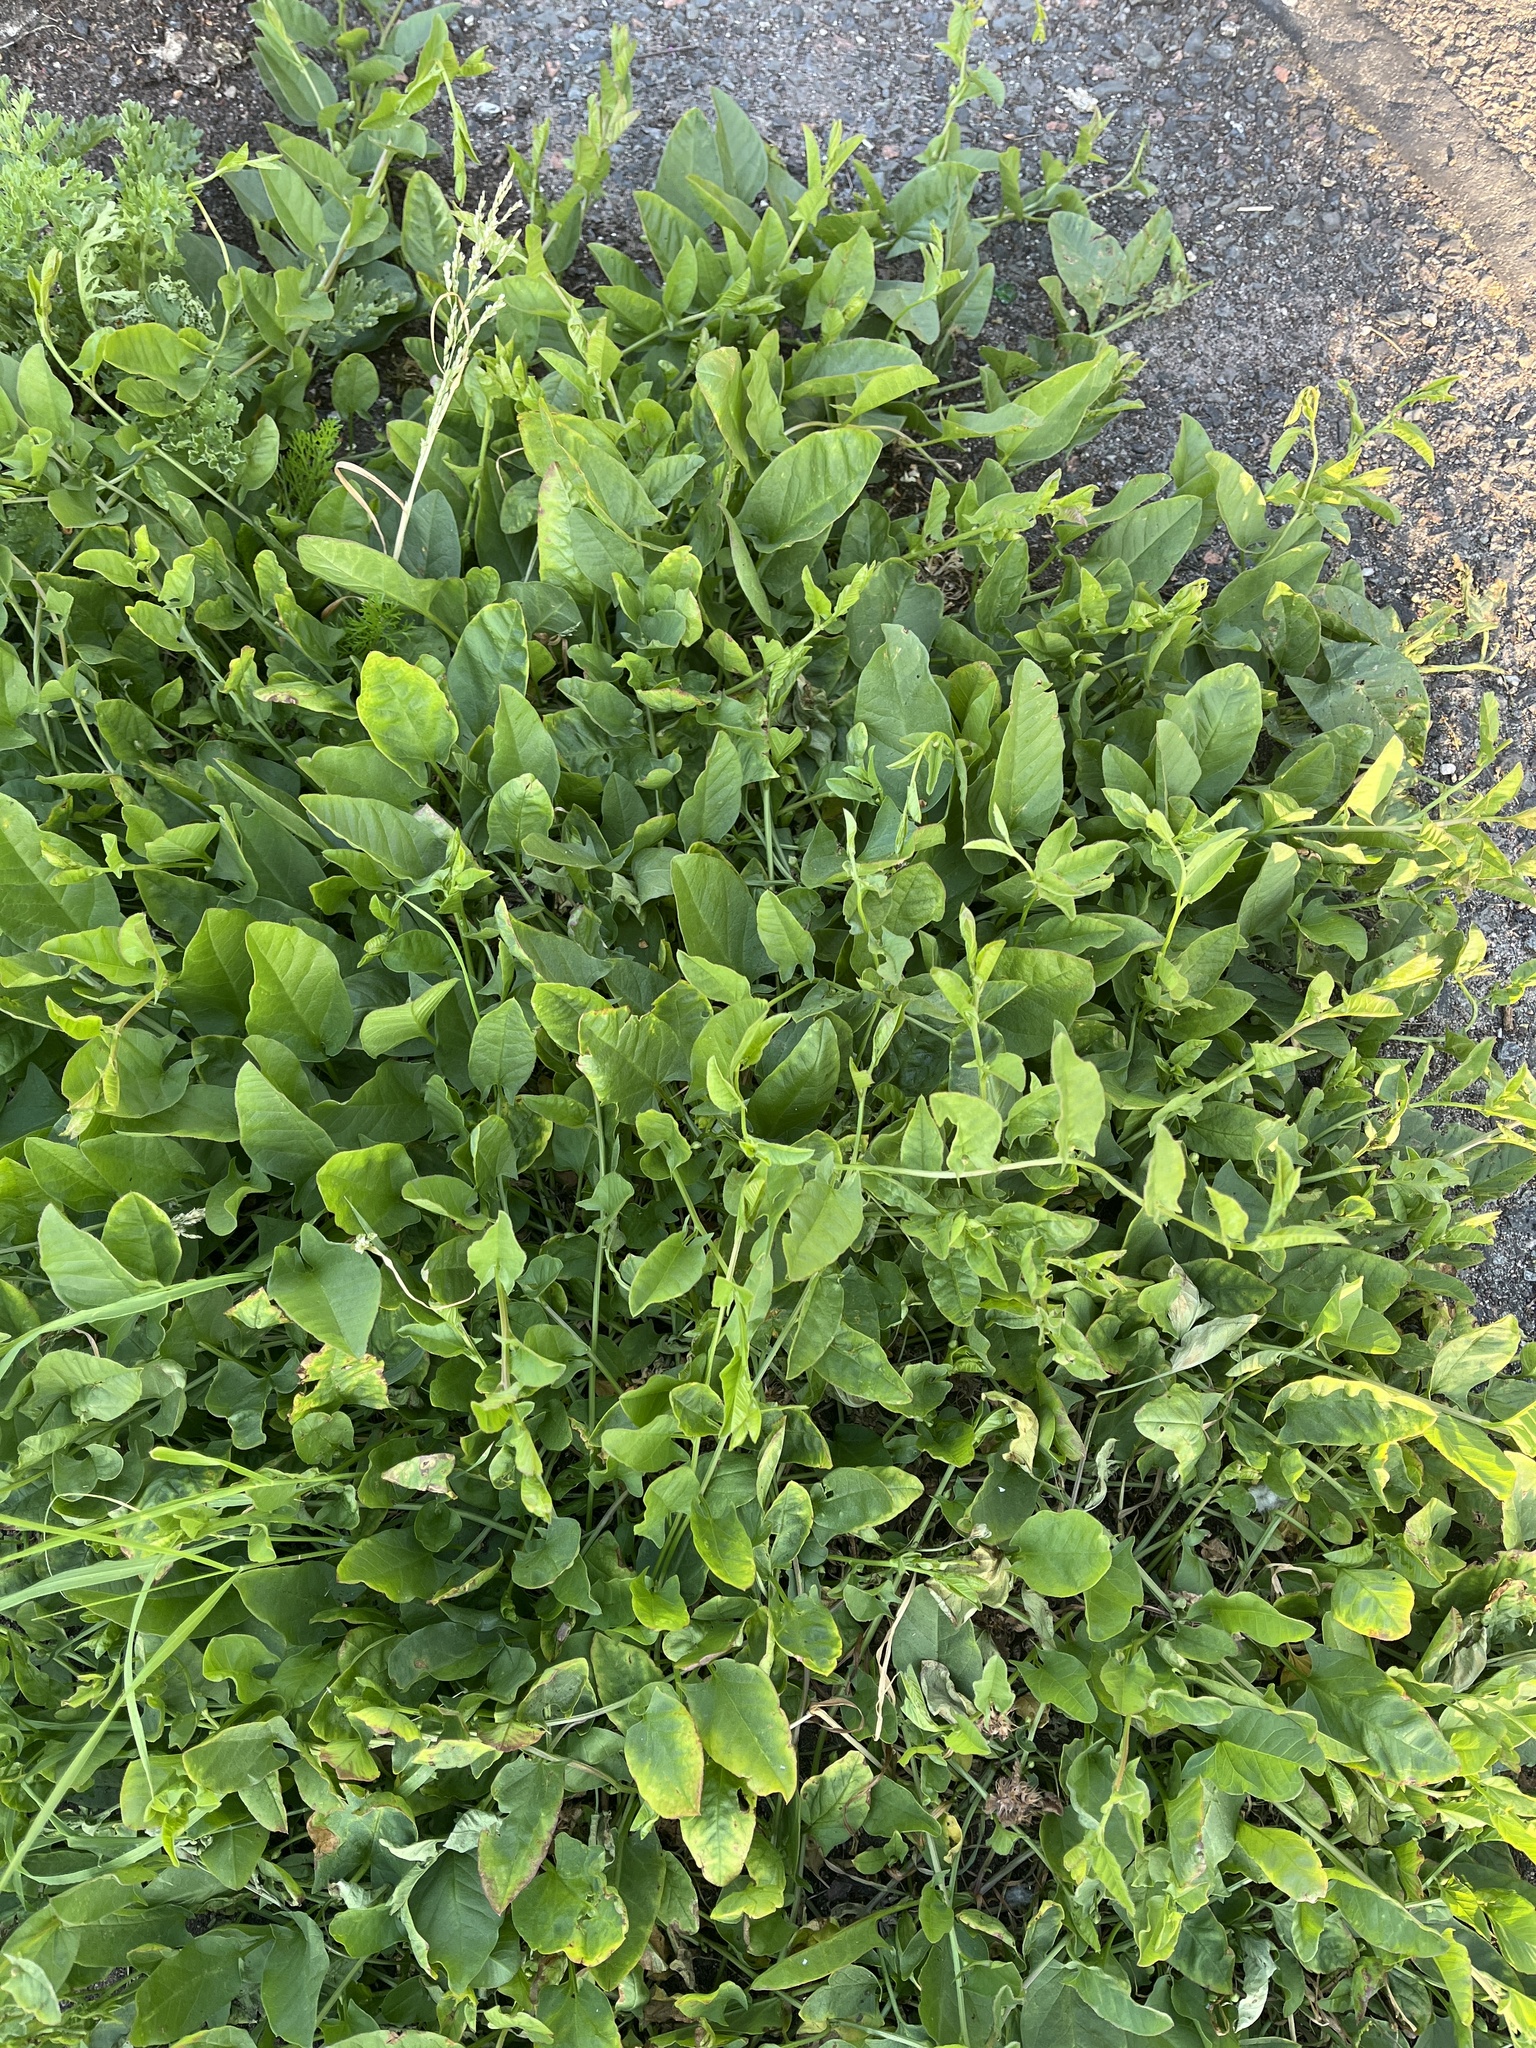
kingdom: Plantae
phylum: Tracheophyta
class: Magnoliopsida
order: Solanales
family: Convolvulaceae
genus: Convolvulus
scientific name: Convolvulus arvensis
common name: Field bindweed
